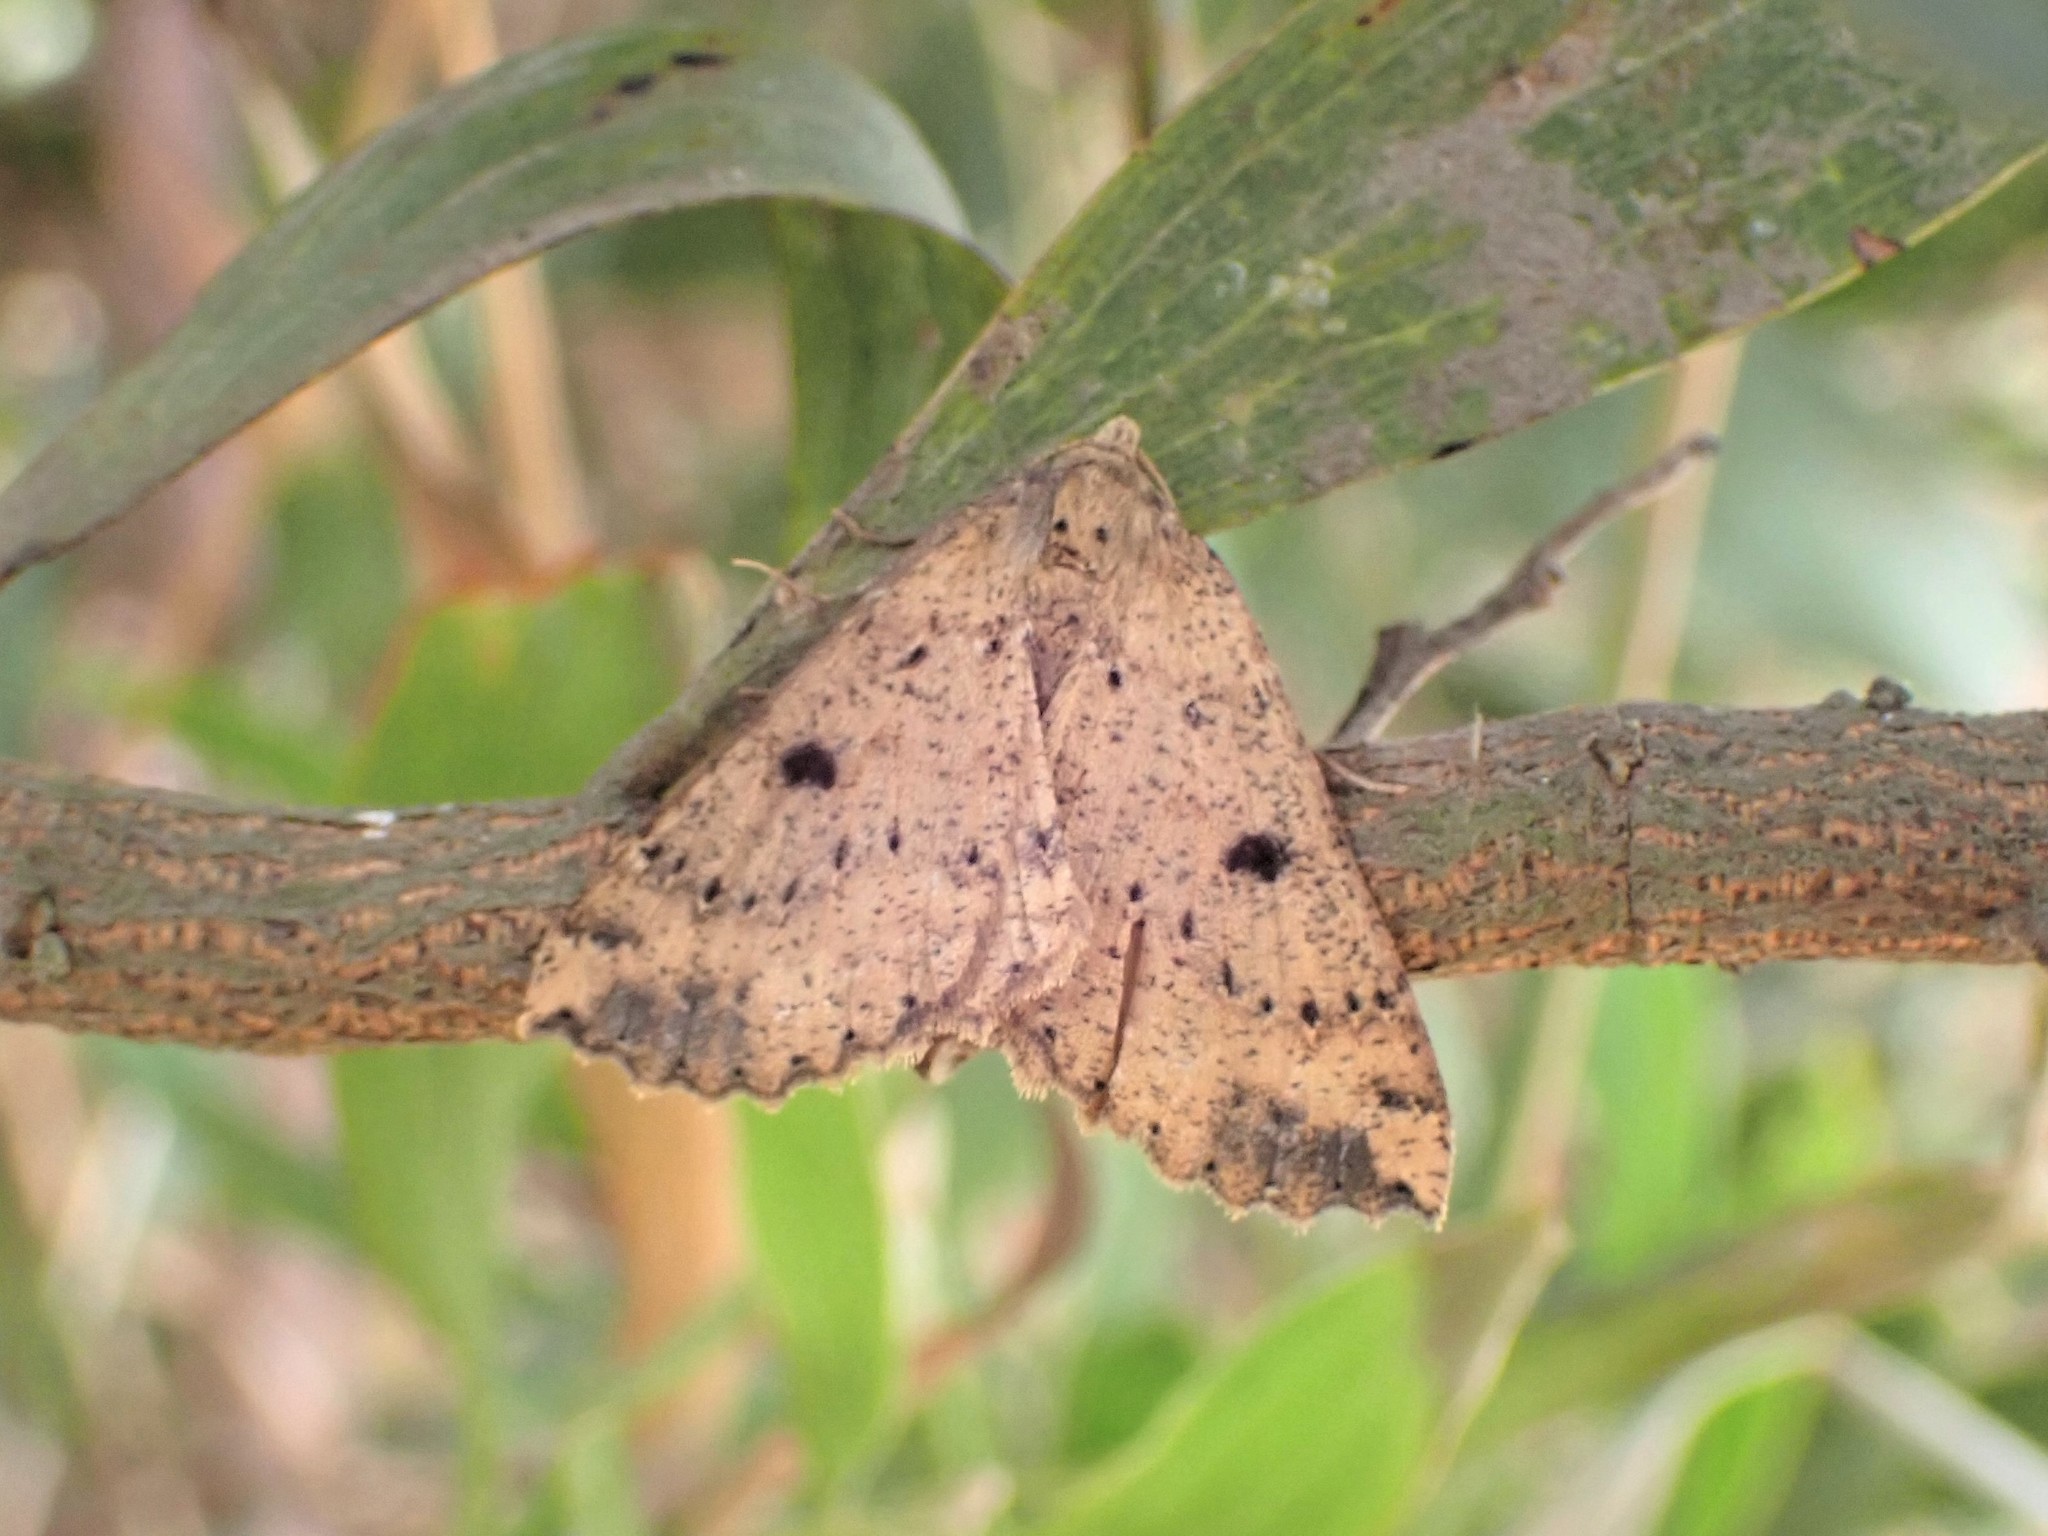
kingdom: Animalia
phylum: Arthropoda
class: Insecta
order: Lepidoptera
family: Geometridae
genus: Cleora
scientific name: Cleora scriptaria
